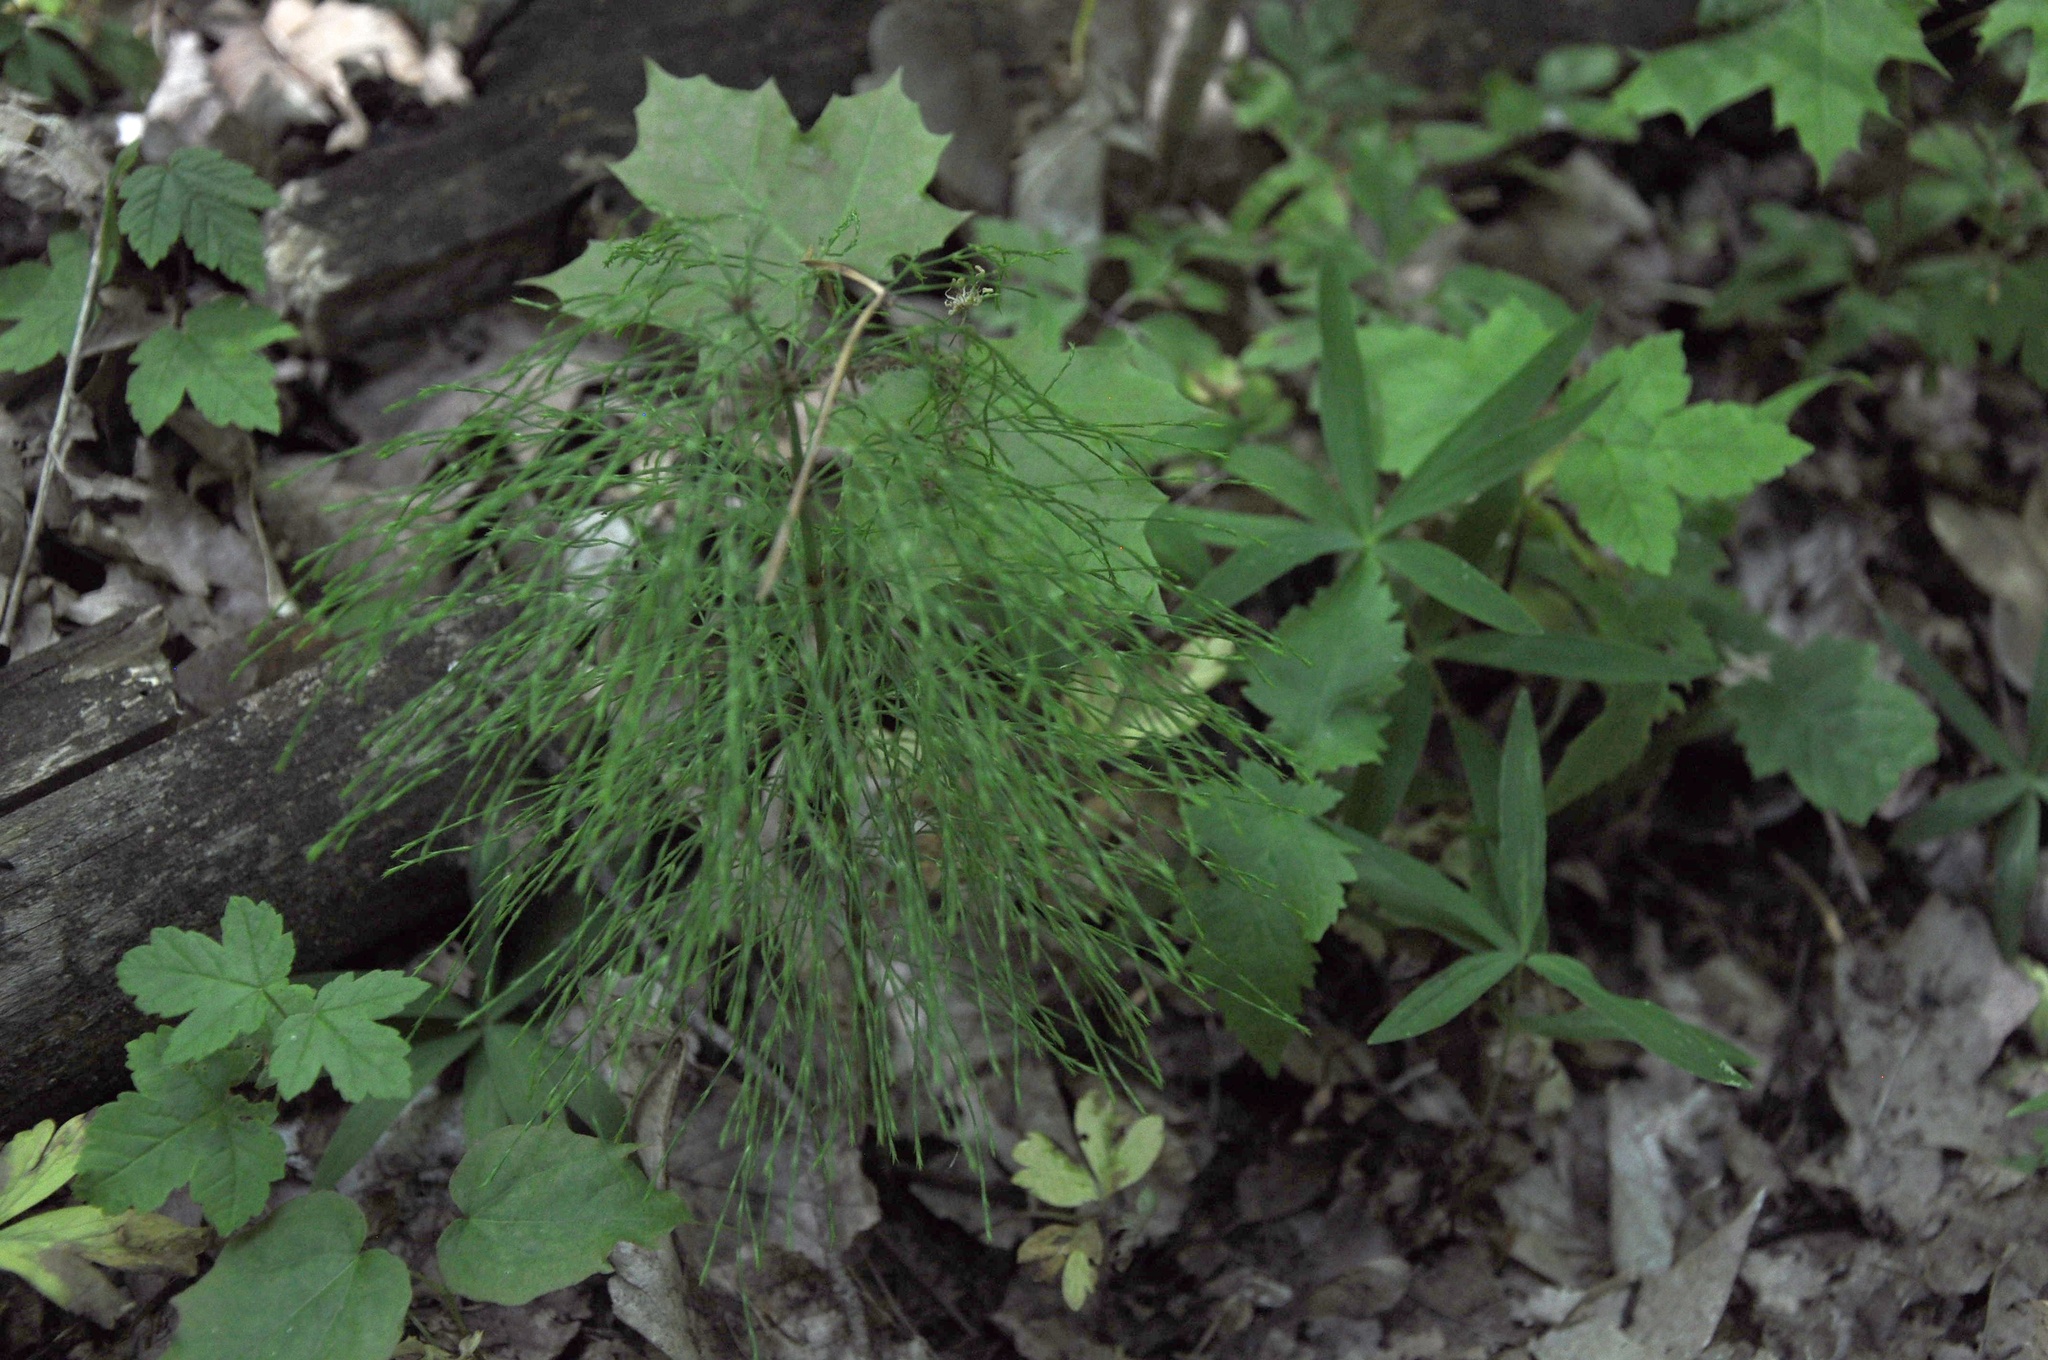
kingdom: Plantae
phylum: Tracheophyta
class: Polypodiopsida
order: Equisetales
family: Equisetaceae
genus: Equisetum
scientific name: Equisetum sylvaticum
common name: Wood horsetail
